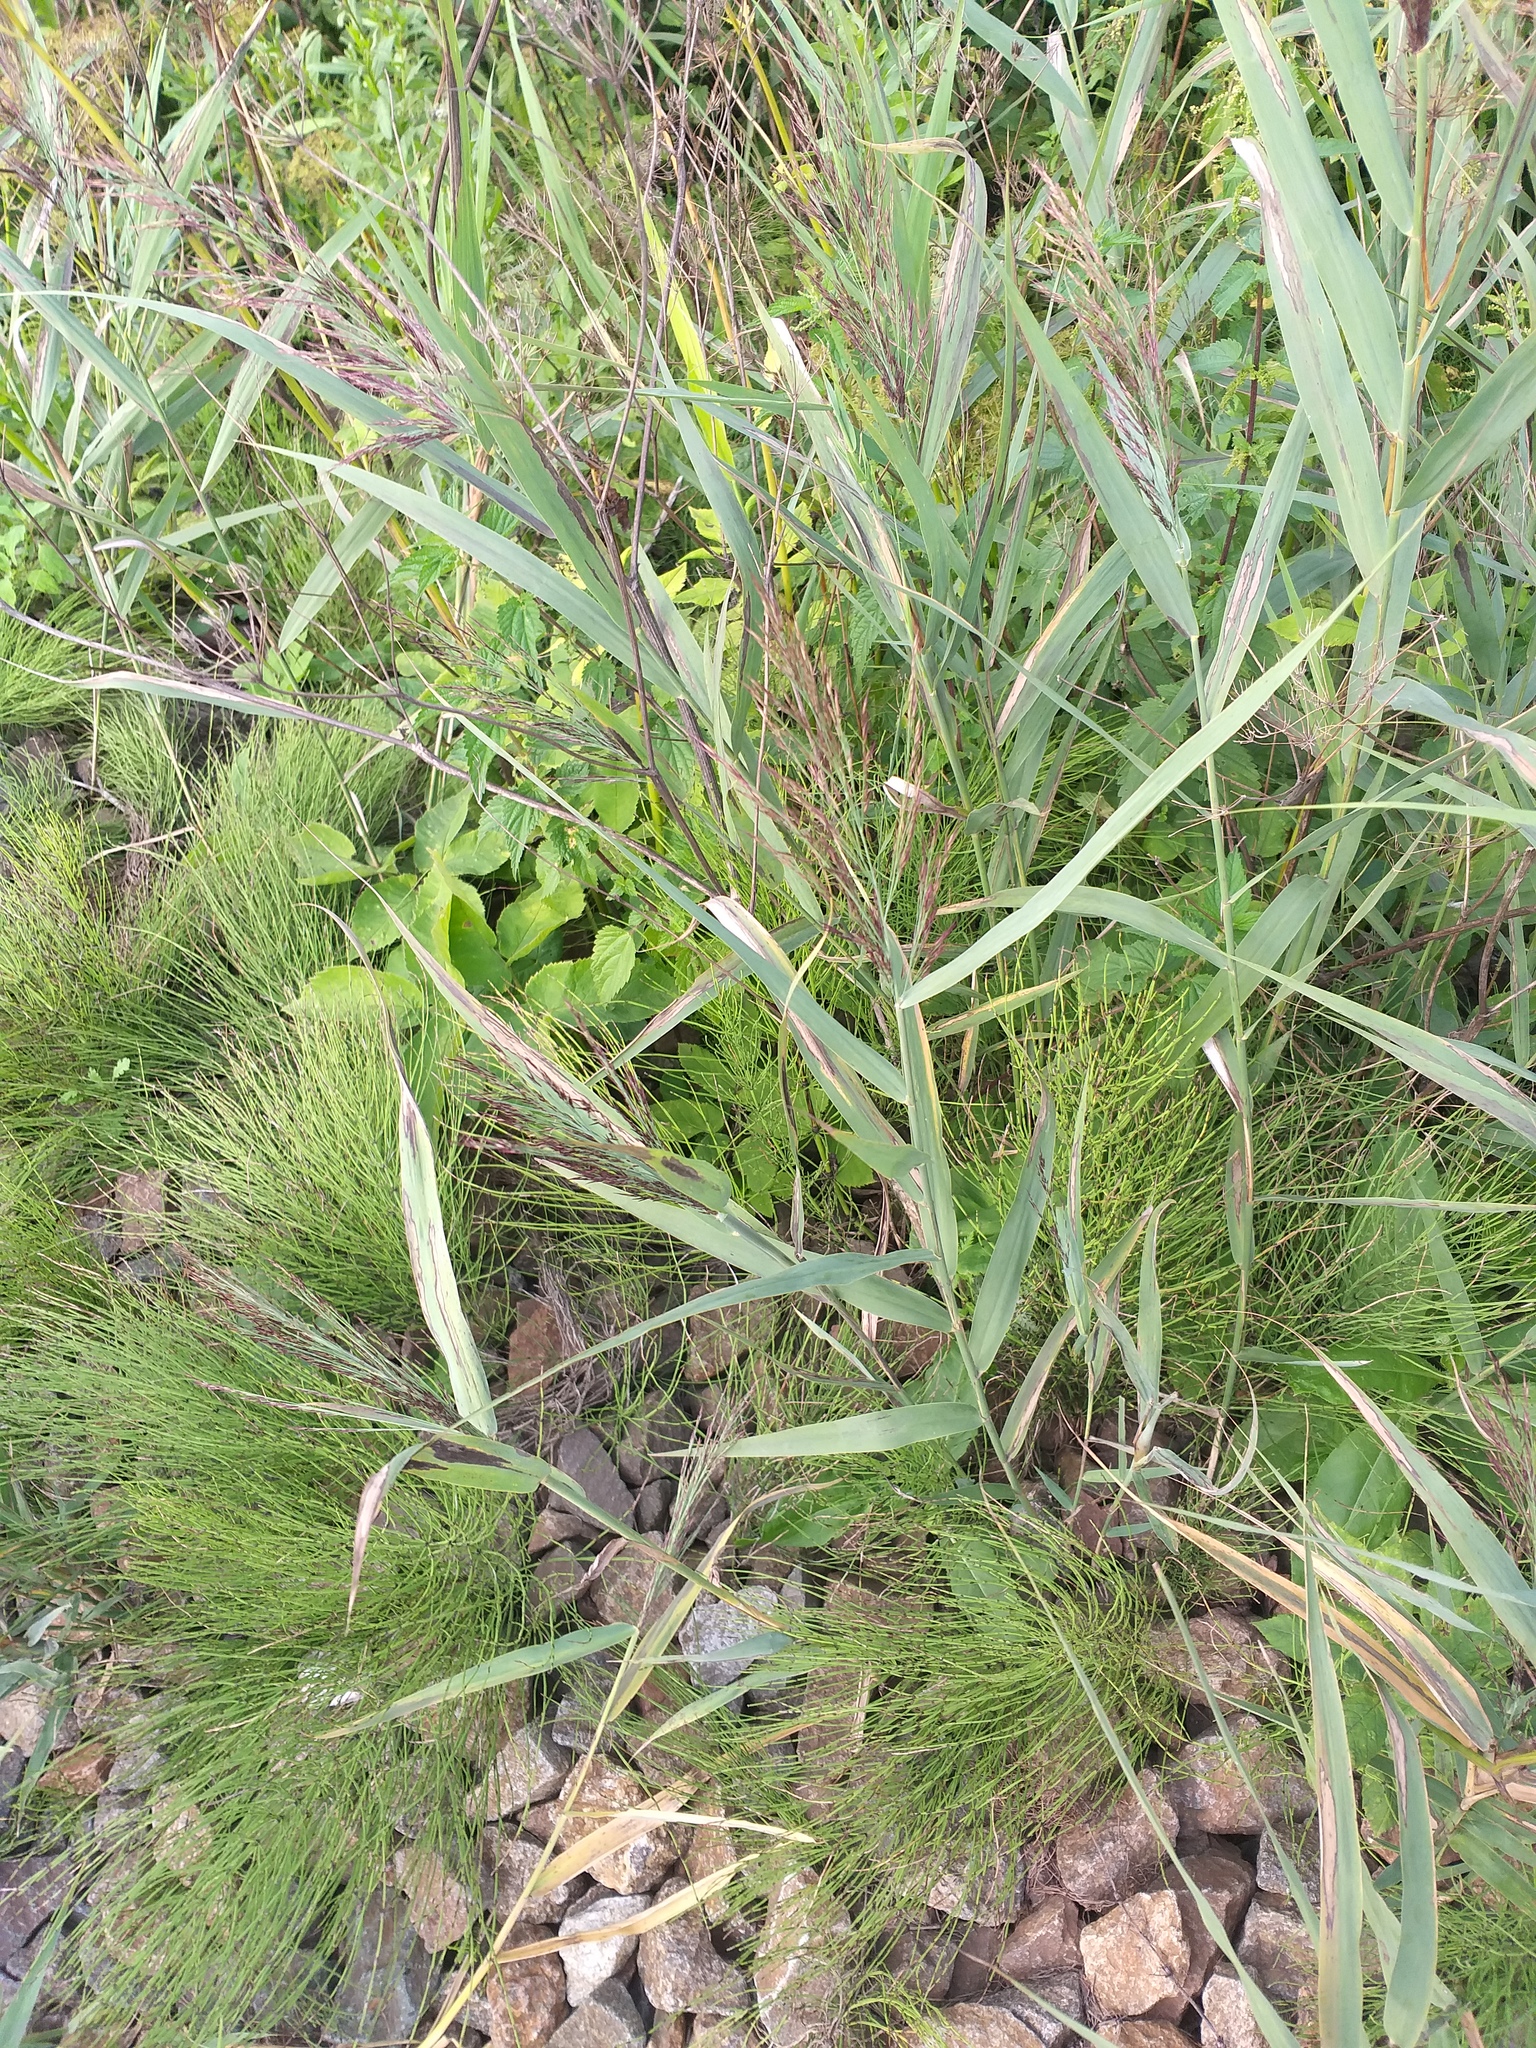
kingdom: Plantae
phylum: Tracheophyta
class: Liliopsida
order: Poales
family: Poaceae
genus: Phragmites
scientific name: Phragmites australis
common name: Common reed
